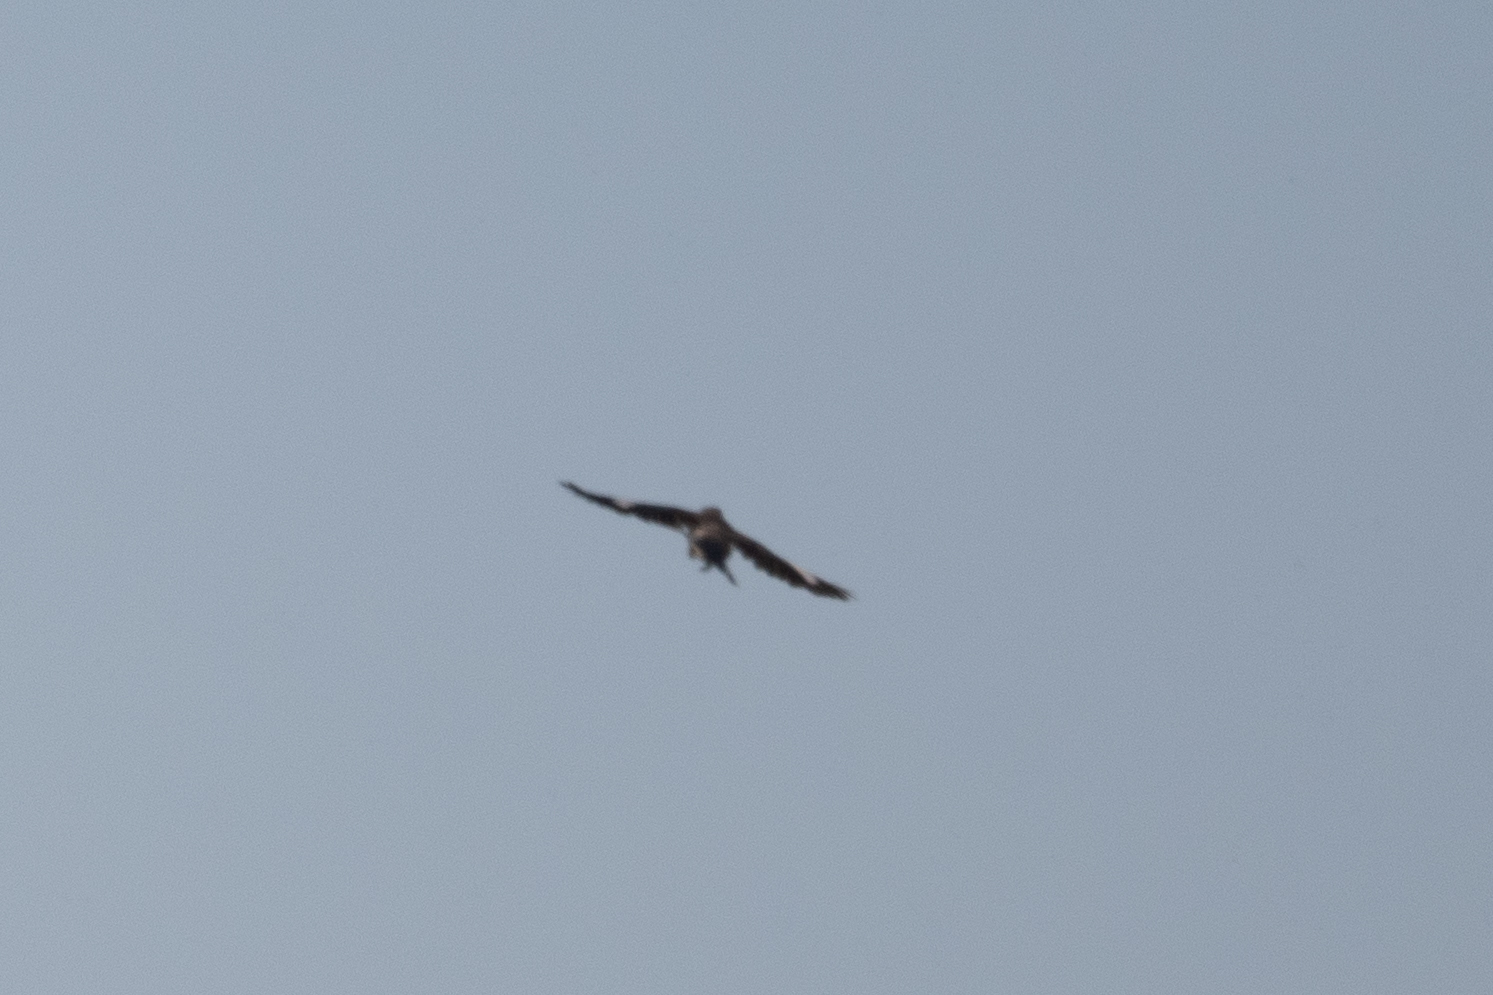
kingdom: Animalia
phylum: Chordata
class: Aves
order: Passeriformes
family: Mimidae
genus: Mimus
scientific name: Mimus polyglottos
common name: Northern mockingbird
